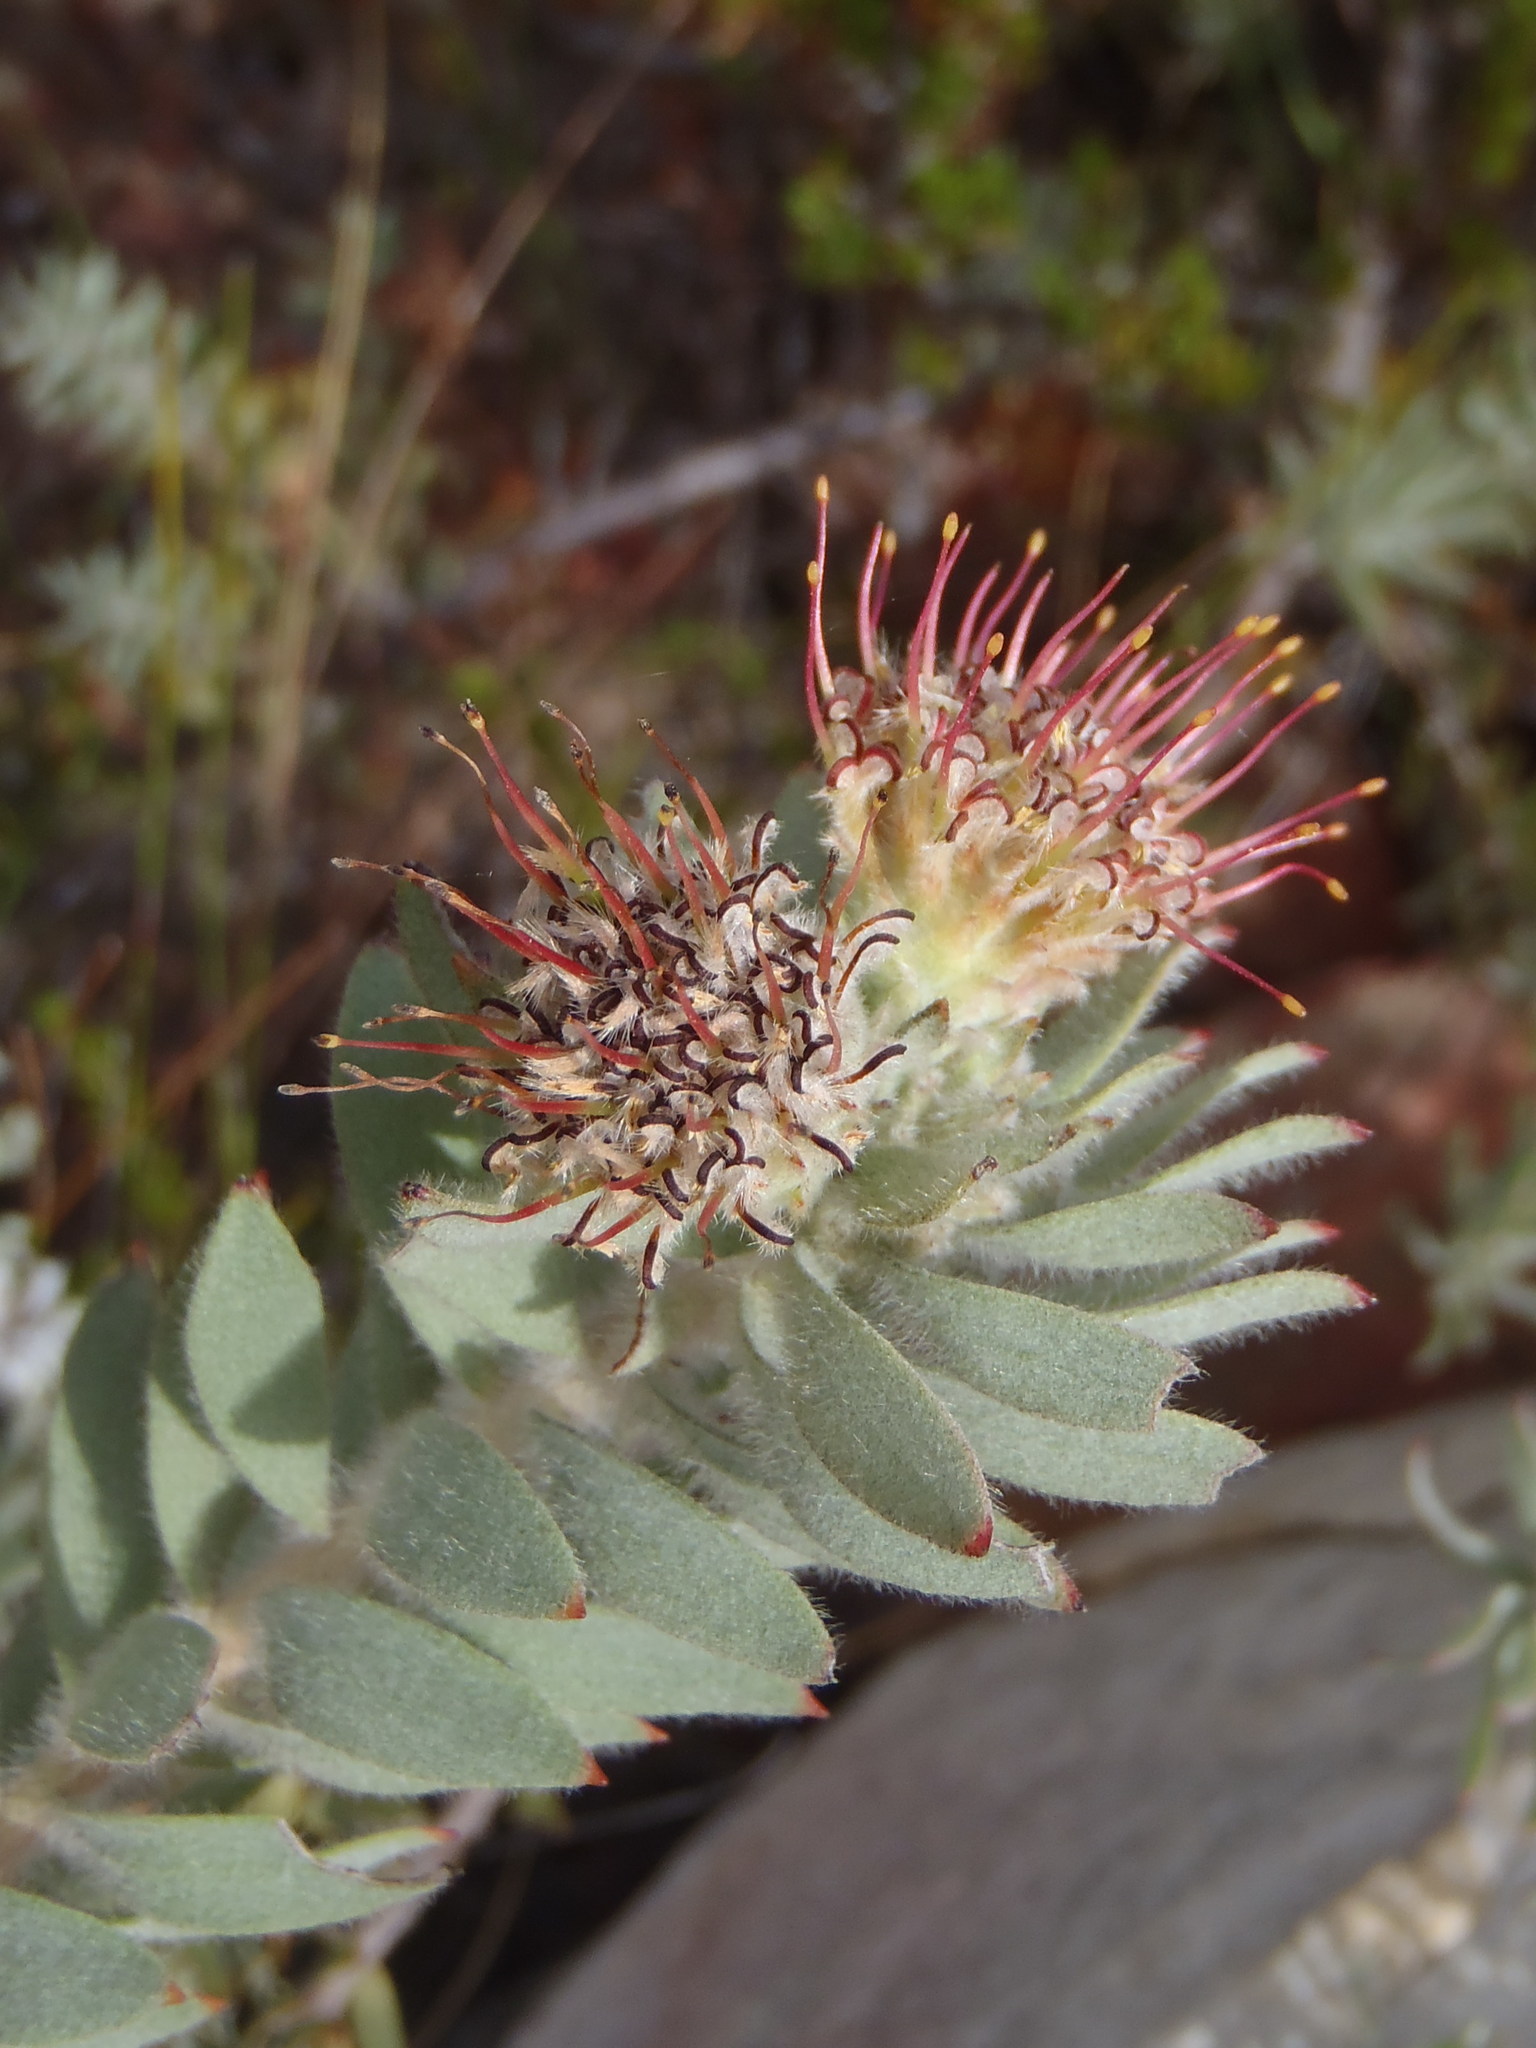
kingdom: Plantae
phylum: Tracheophyta
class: Magnoliopsida
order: Proteales
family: Proteaceae
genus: Leucospermum
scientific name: Leucospermum wittebergense
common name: Swartberg pincushion
